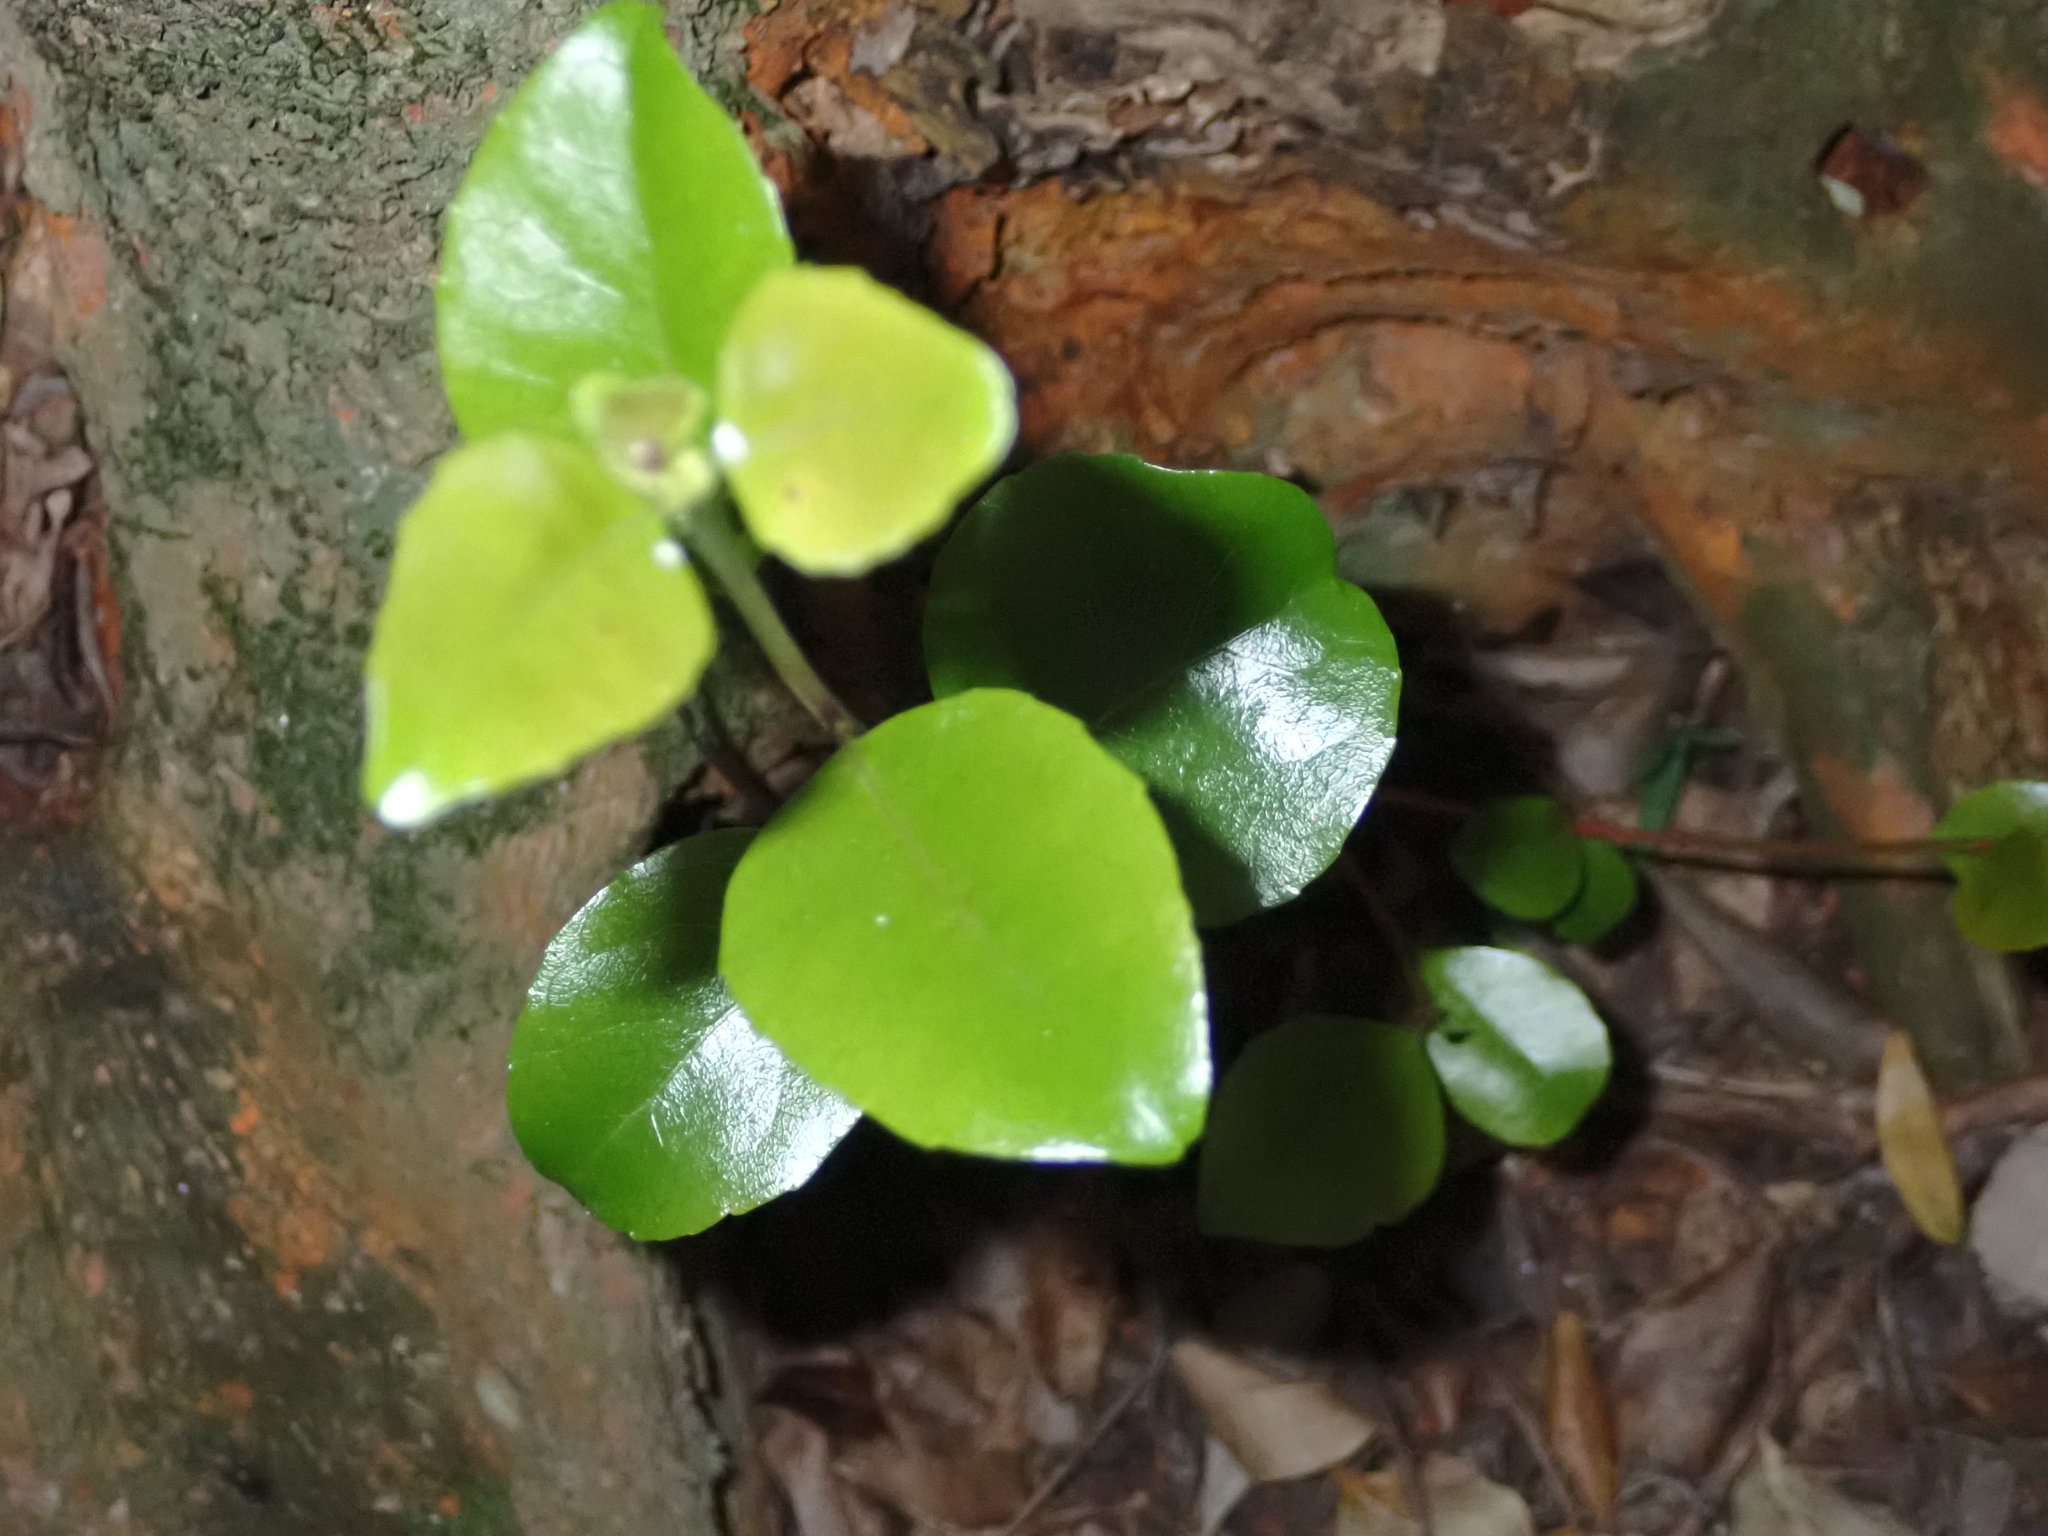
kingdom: Plantae
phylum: Tracheophyta
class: Magnoliopsida
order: Celastrales
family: Celastraceae
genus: Cassine
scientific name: Cassine peragua
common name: Cape saffron
